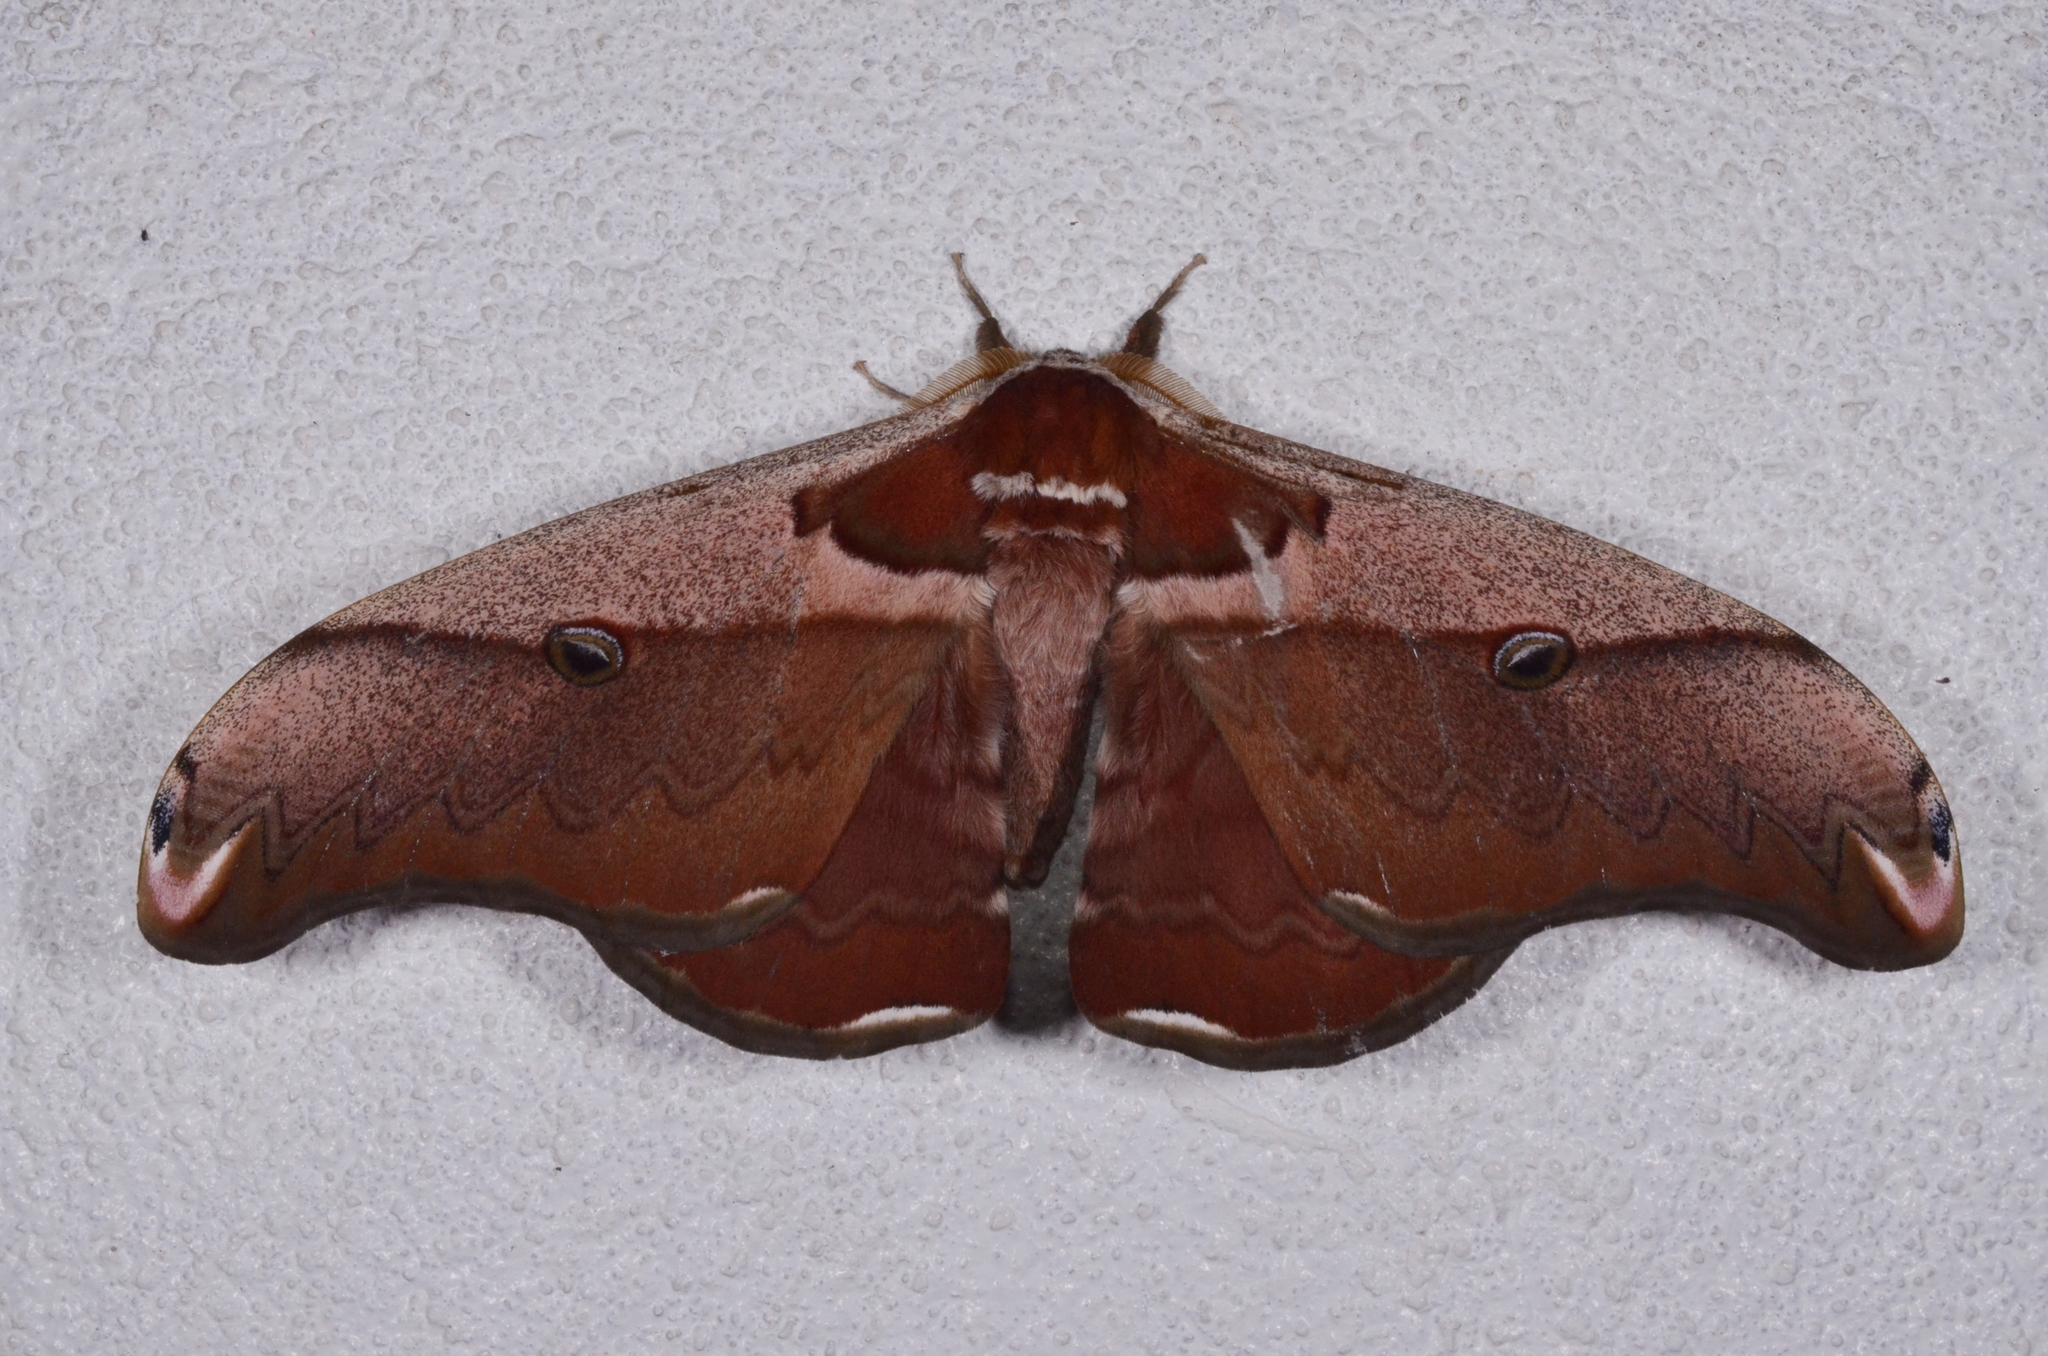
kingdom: Animalia
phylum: Arthropoda
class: Insecta
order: Lepidoptera
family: Saturniidae
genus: Saturnia
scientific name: Saturnia simla
